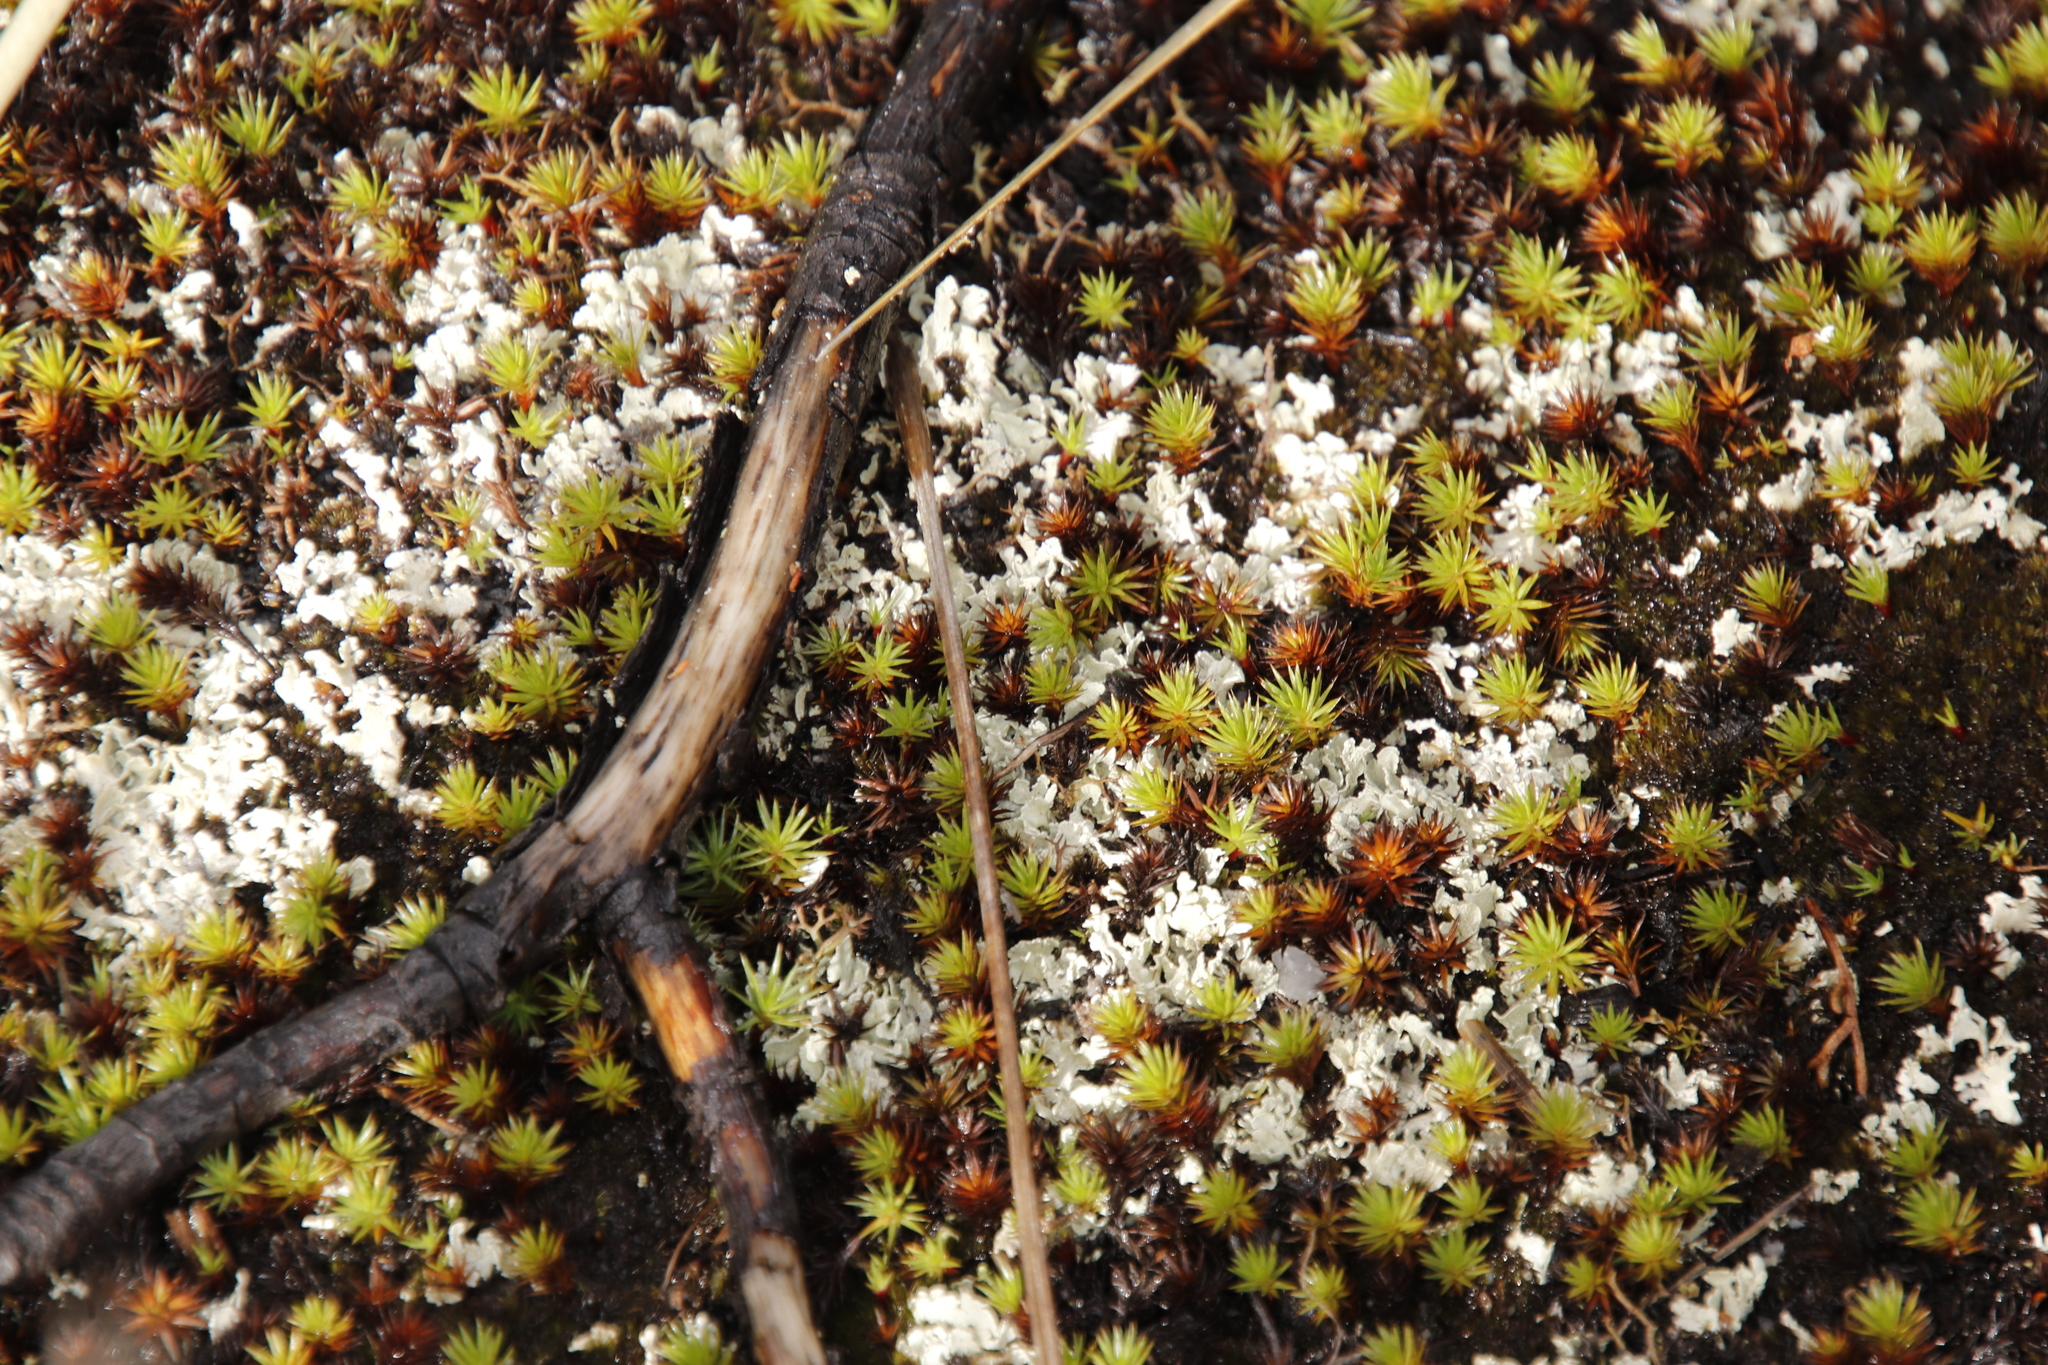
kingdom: Plantae
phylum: Bryophyta
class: Polytrichopsida
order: Polytrichales
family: Polytrichaceae
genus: Polytrichum
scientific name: Polytrichum juniperinum
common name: Juniper haircap moss
